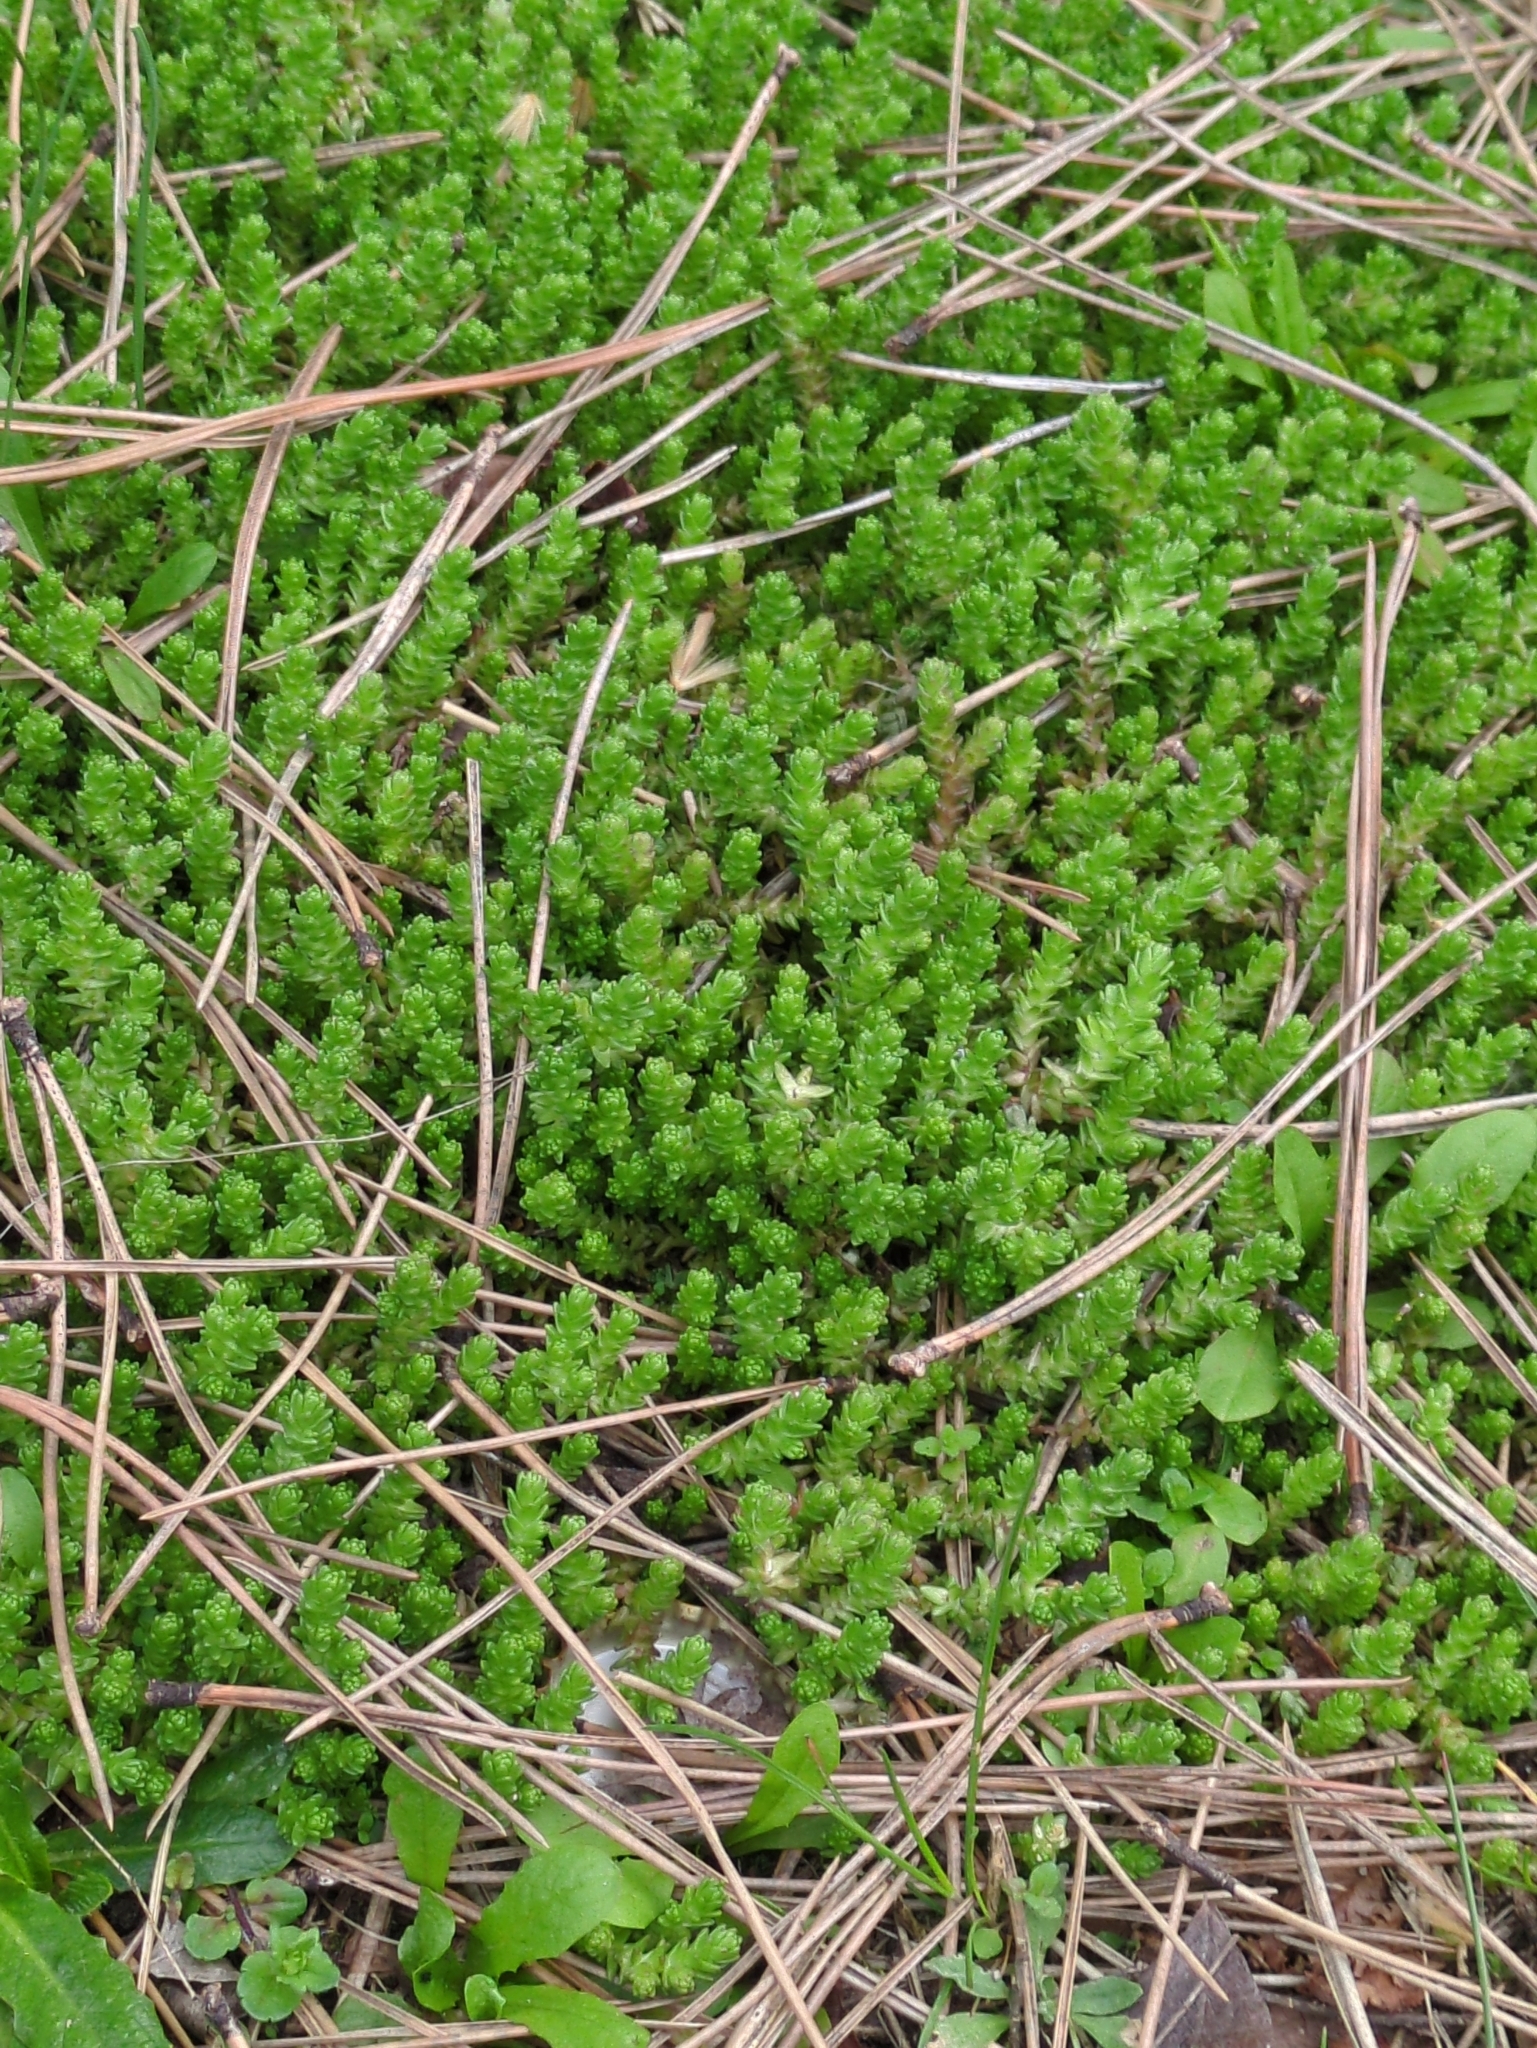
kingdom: Plantae
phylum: Tracheophyta
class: Magnoliopsida
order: Saxifragales
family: Crassulaceae
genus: Sedum
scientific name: Sedum acre
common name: Biting stonecrop
